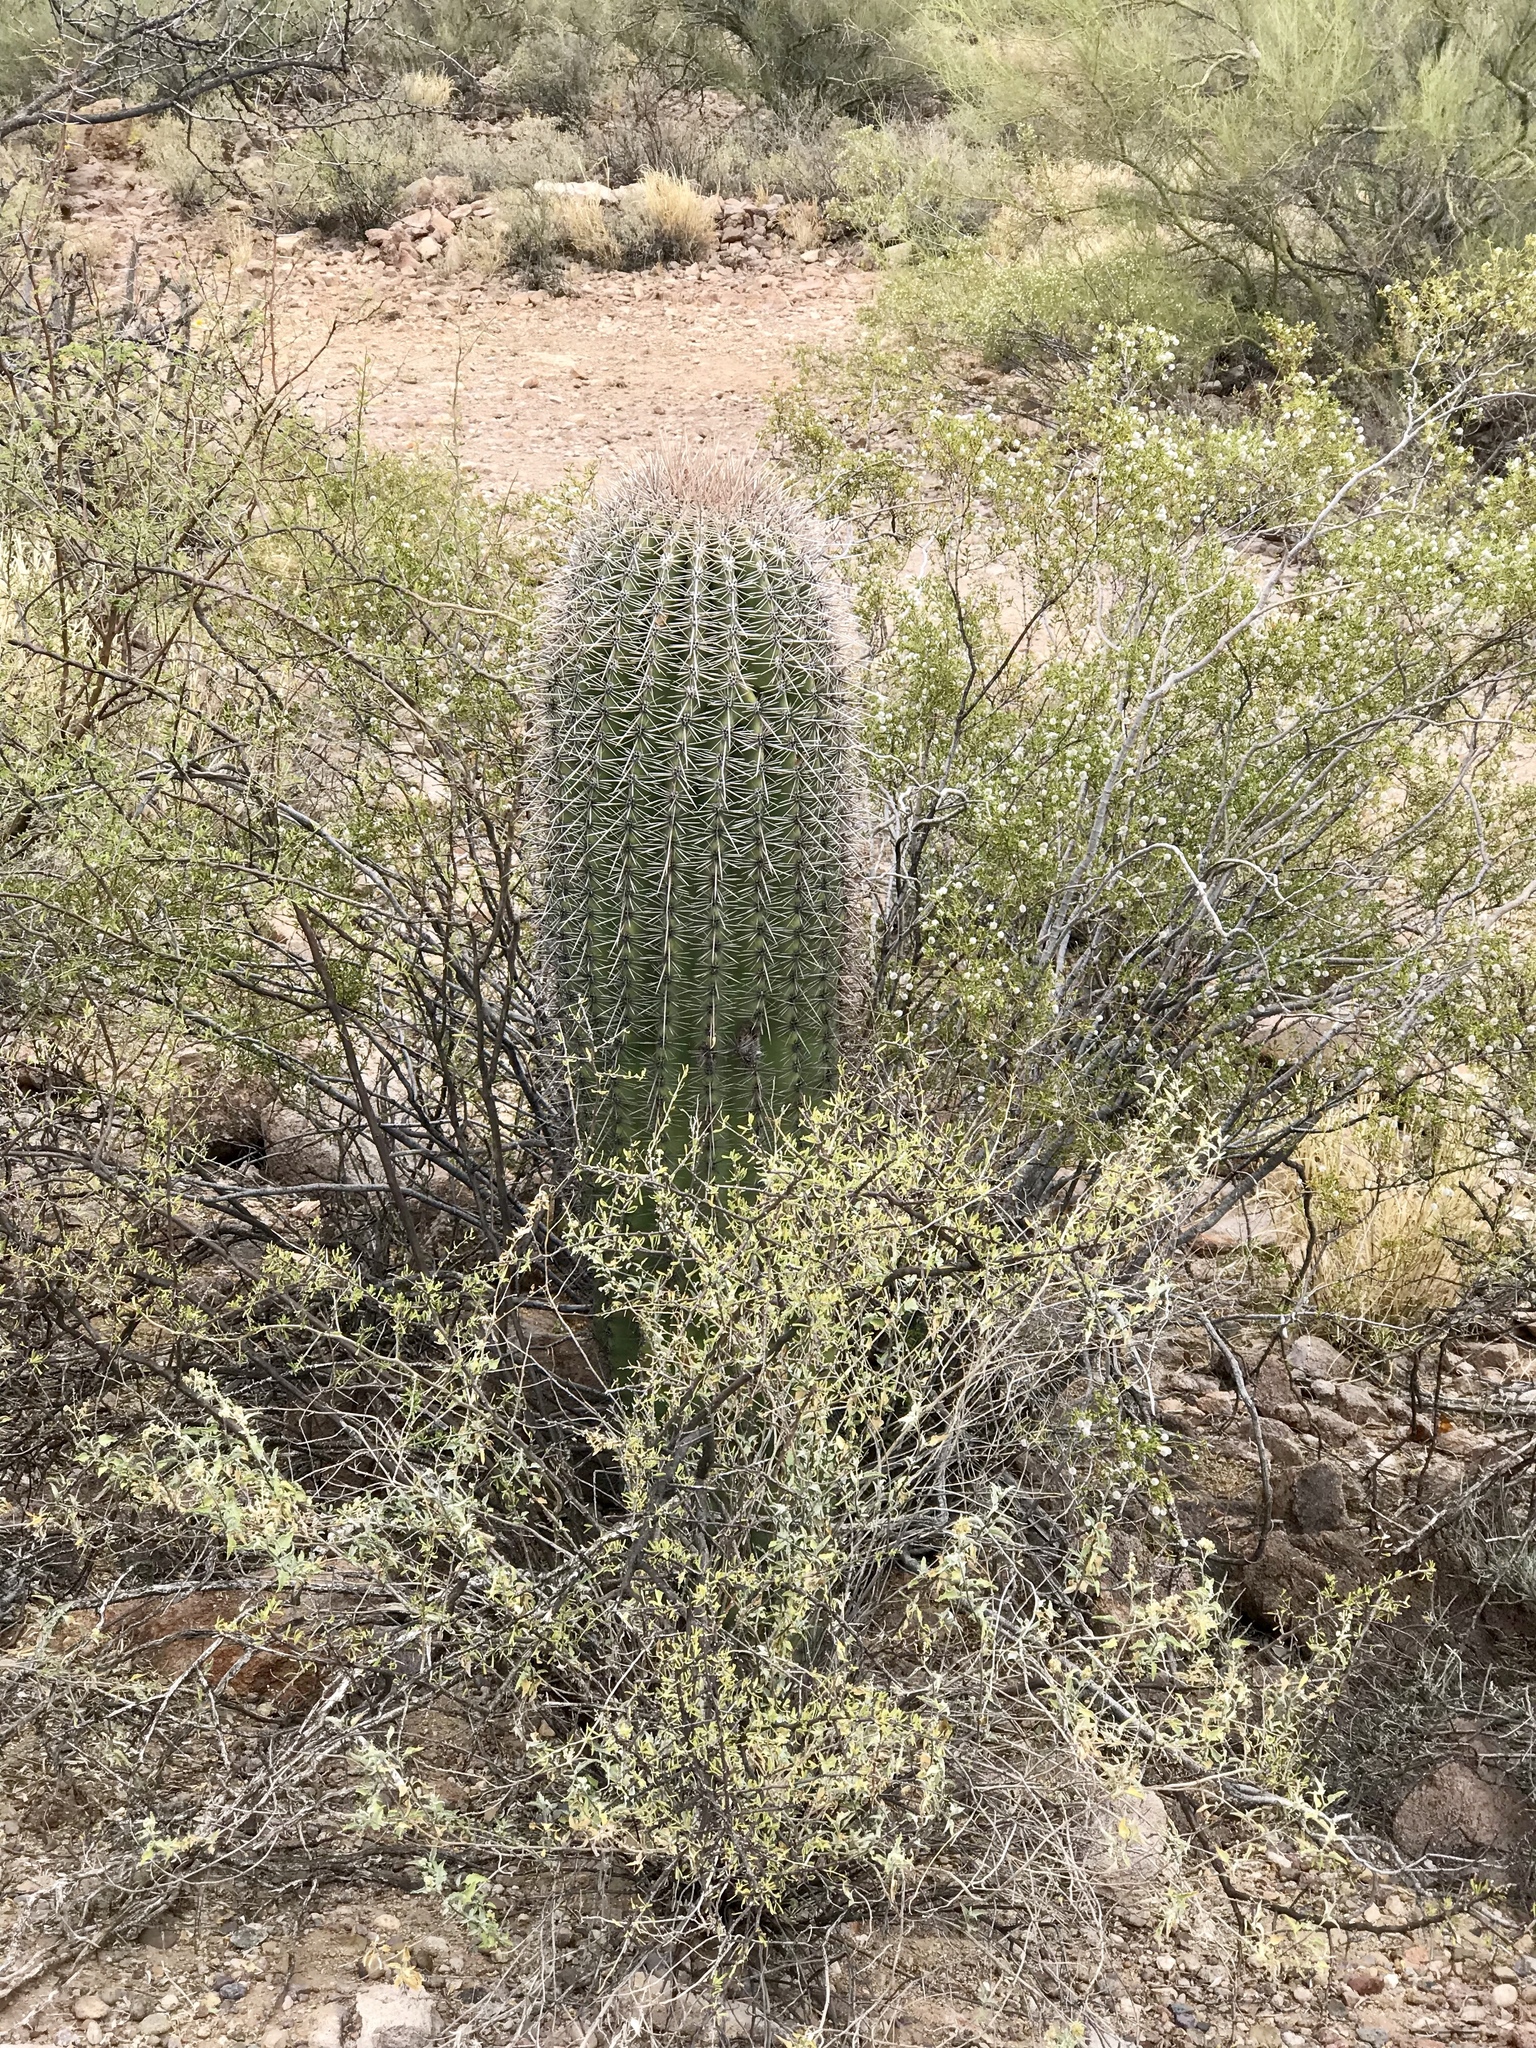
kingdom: Plantae
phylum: Tracheophyta
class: Magnoliopsida
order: Caryophyllales
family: Cactaceae
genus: Carnegiea
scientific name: Carnegiea gigantea
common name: Saguaro
